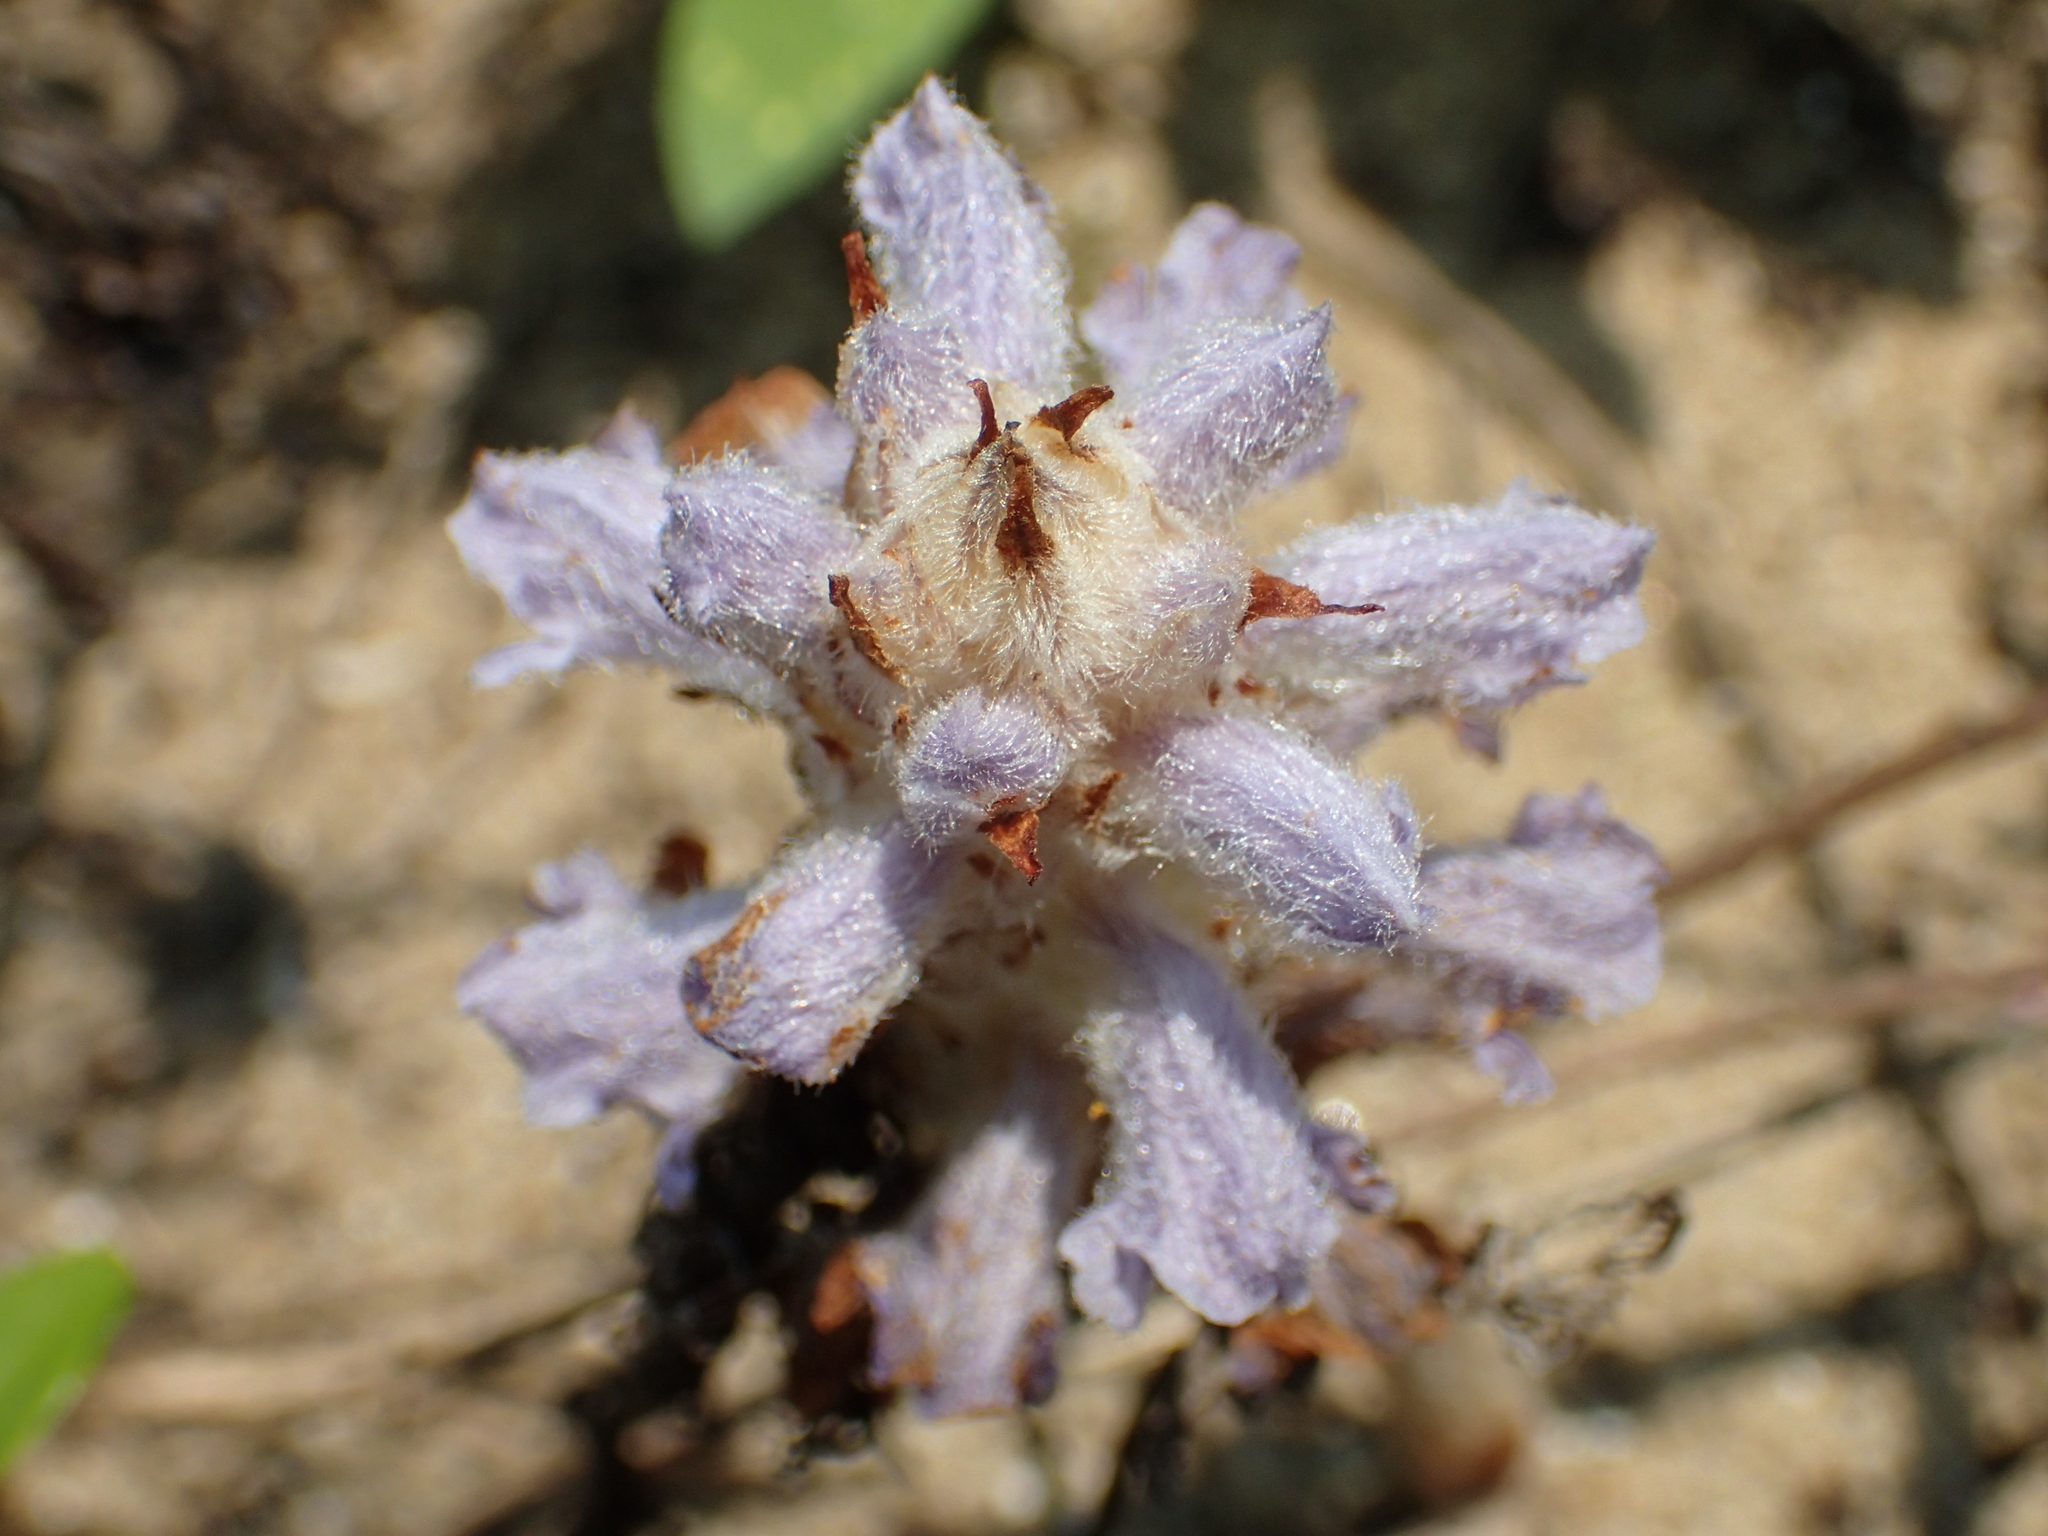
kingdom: Plantae
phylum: Tracheophyta
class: Magnoliopsida
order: Lamiales
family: Orobanchaceae
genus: Orobanche
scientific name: Orobanche coerulescens
